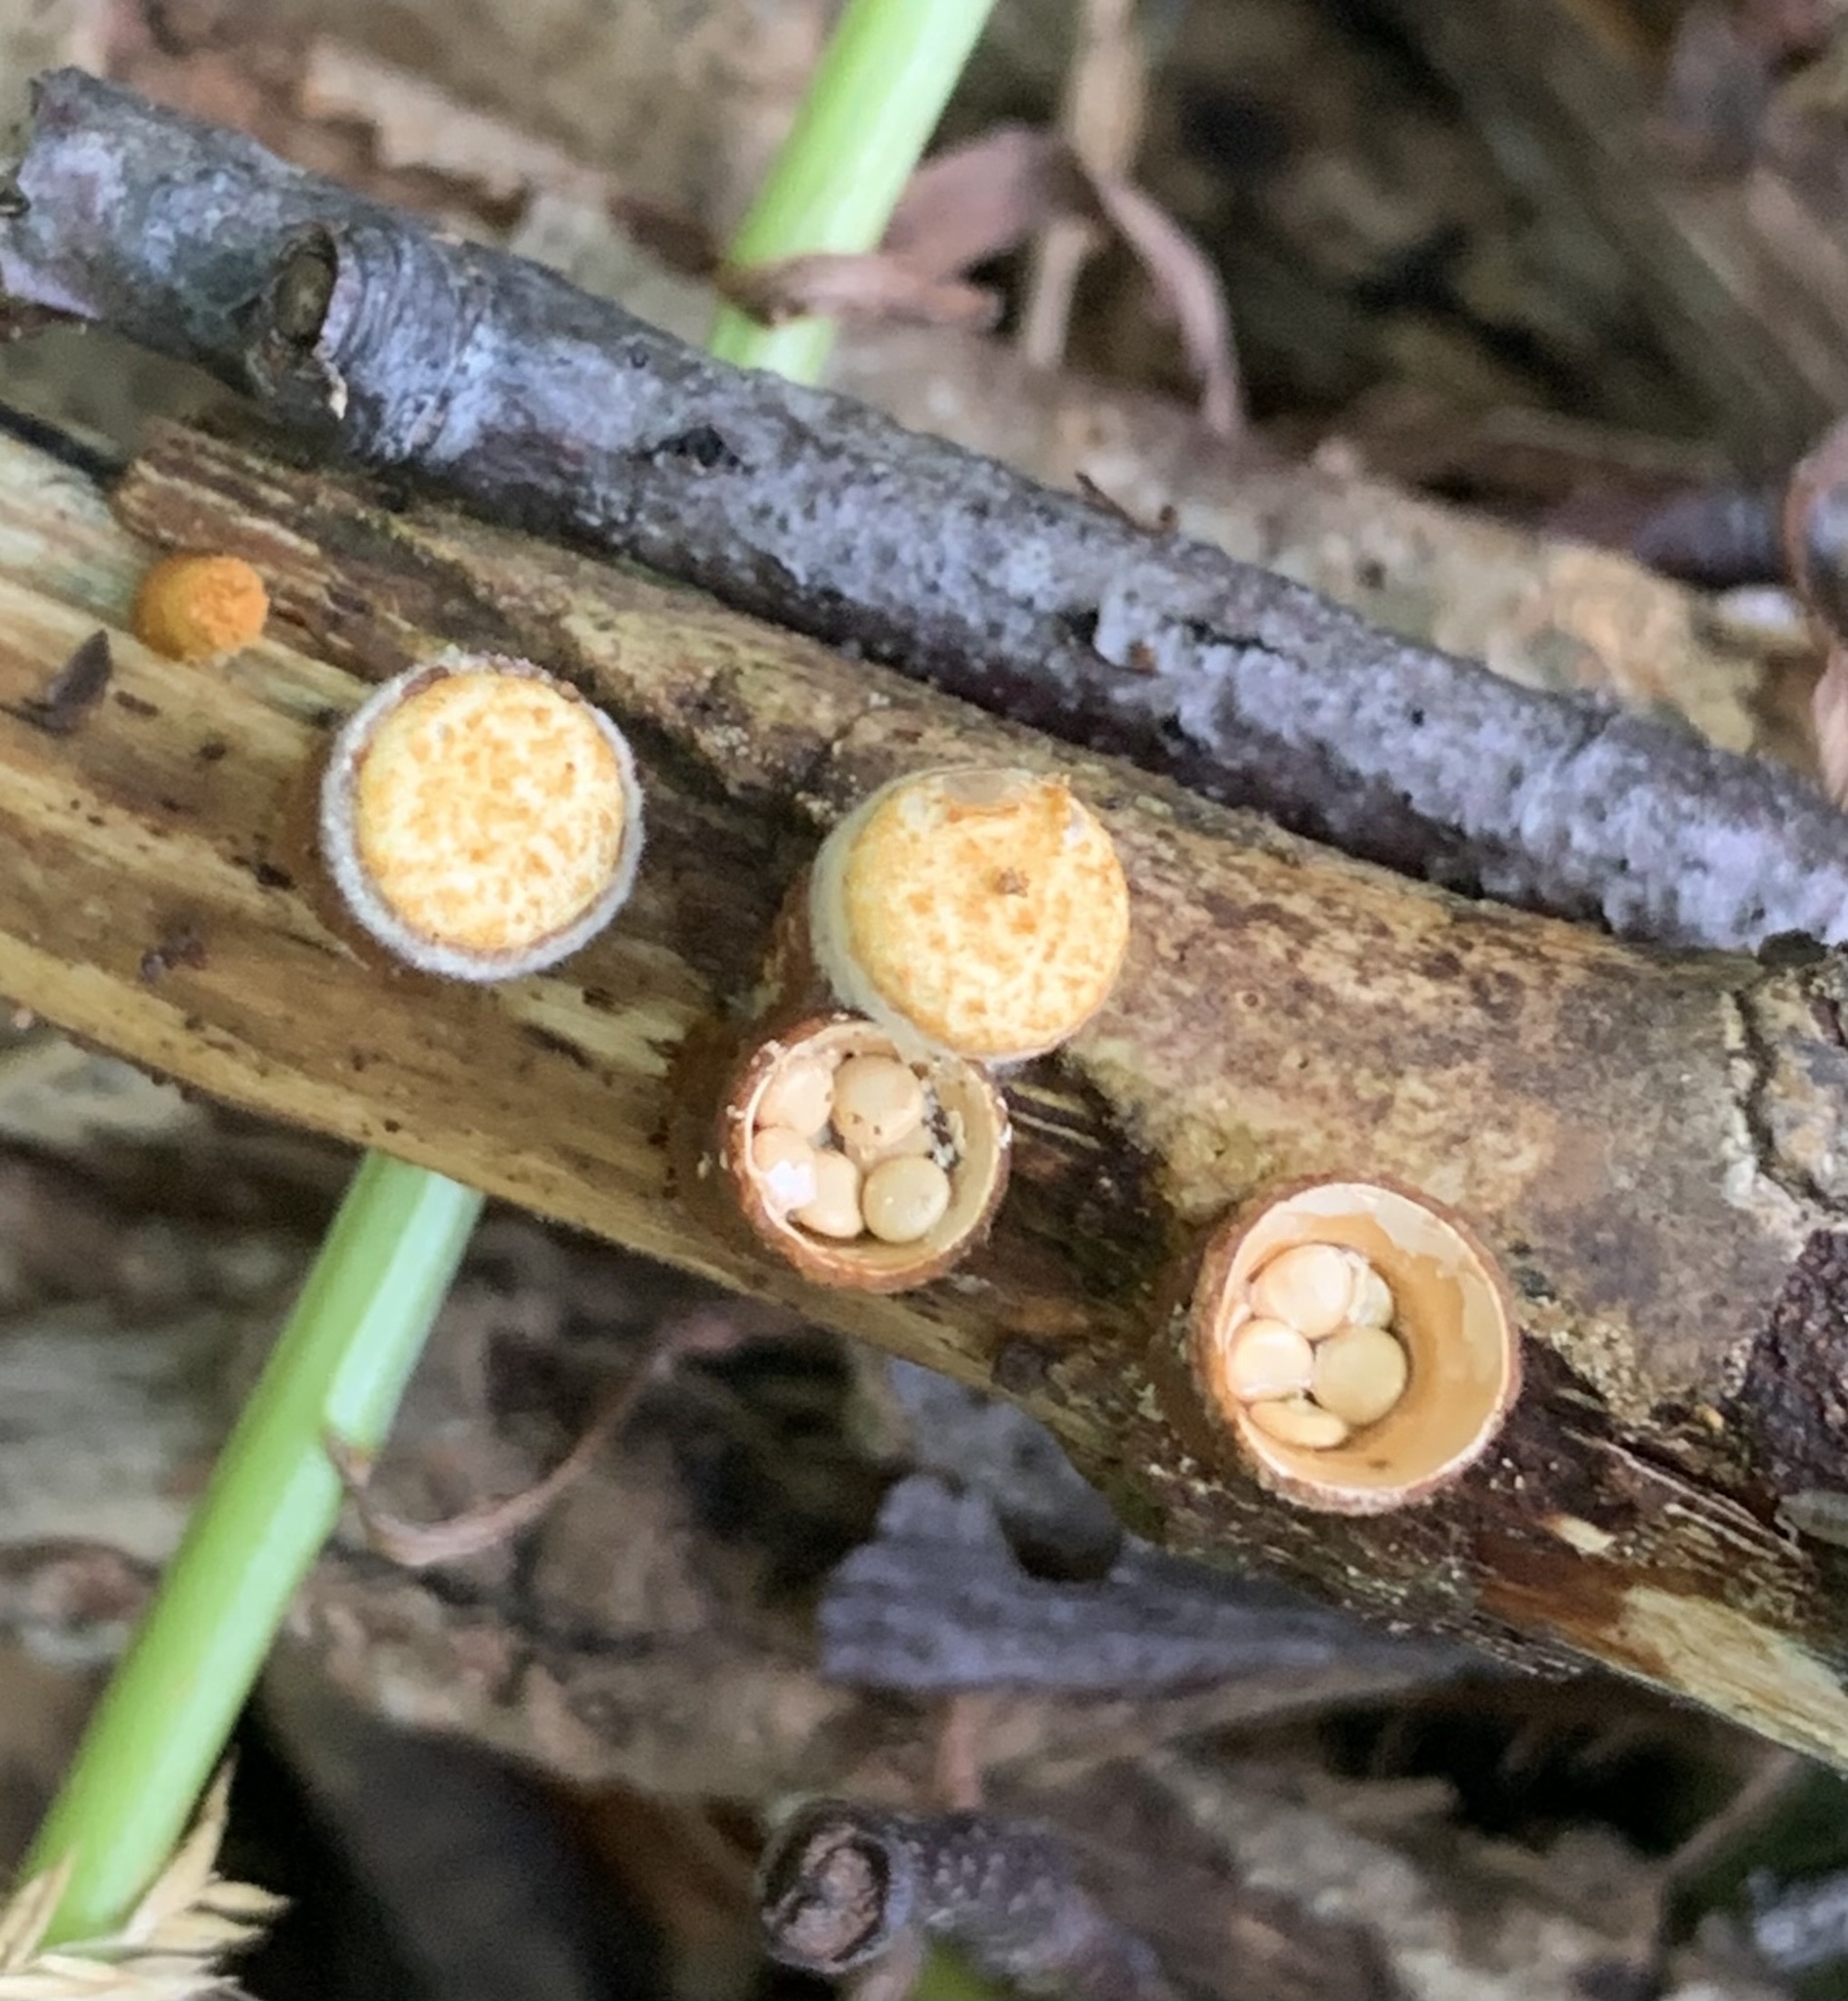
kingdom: Fungi
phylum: Basidiomycota
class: Agaricomycetes
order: Agaricales
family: Nidulariaceae
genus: Crucibulum
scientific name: Crucibulum laeve
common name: Common bird's nest
